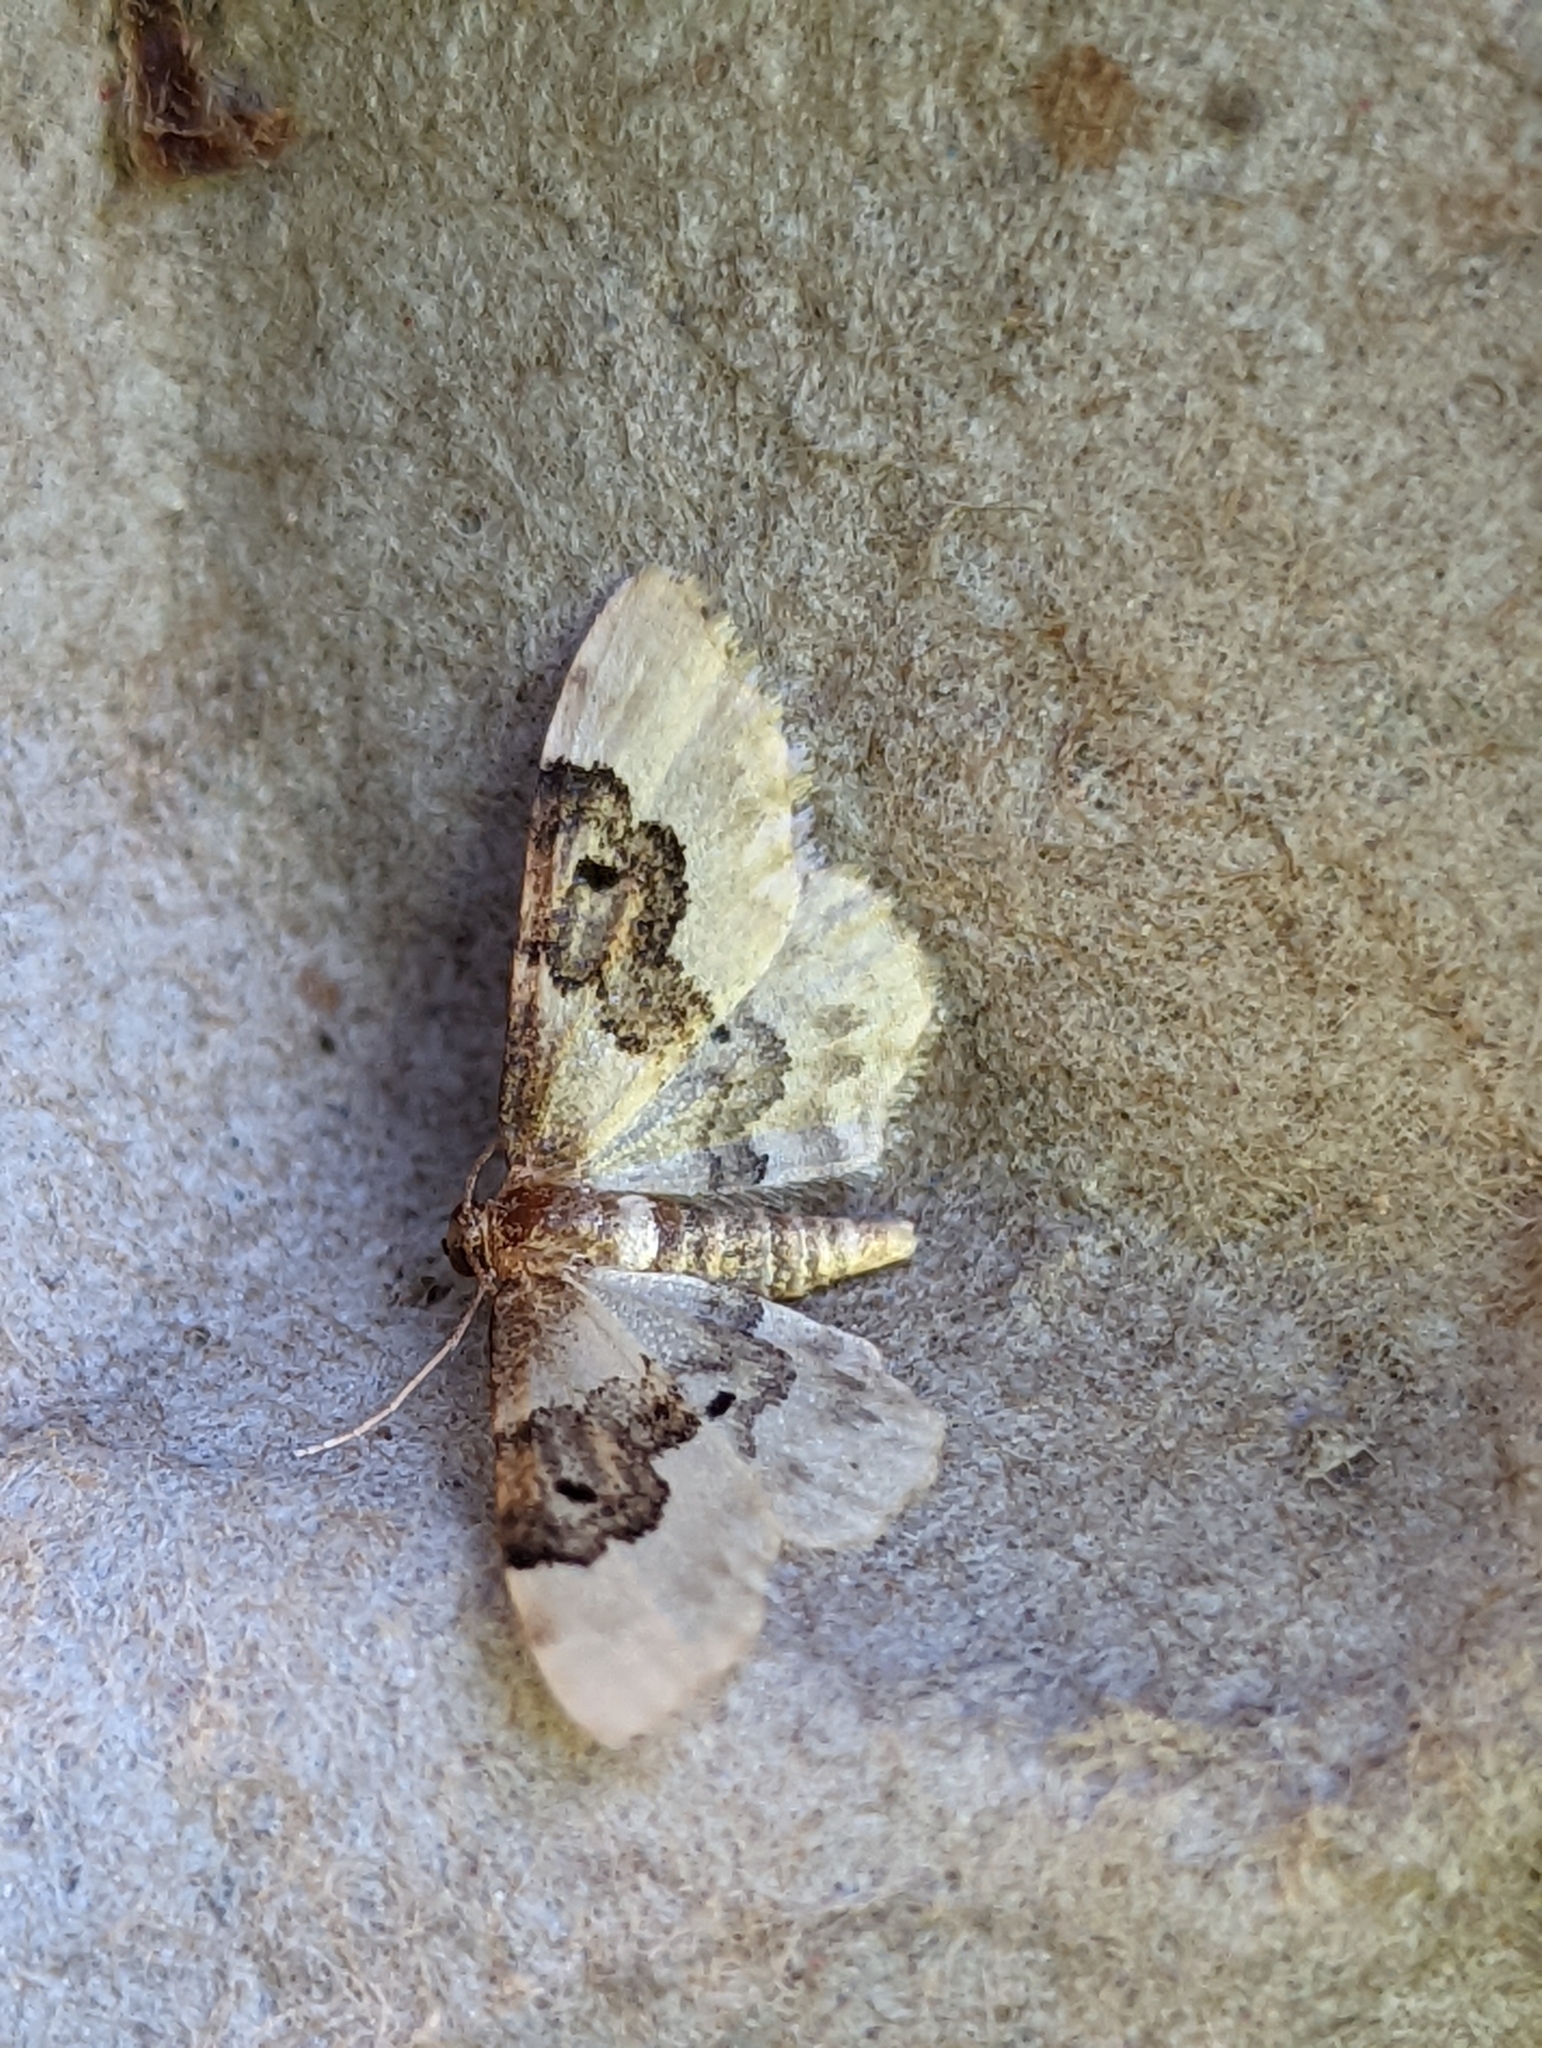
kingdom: Animalia
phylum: Arthropoda
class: Insecta
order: Lepidoptera
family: Geometridae
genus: Idaea
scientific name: Idaea rusticata
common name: Least carpet
